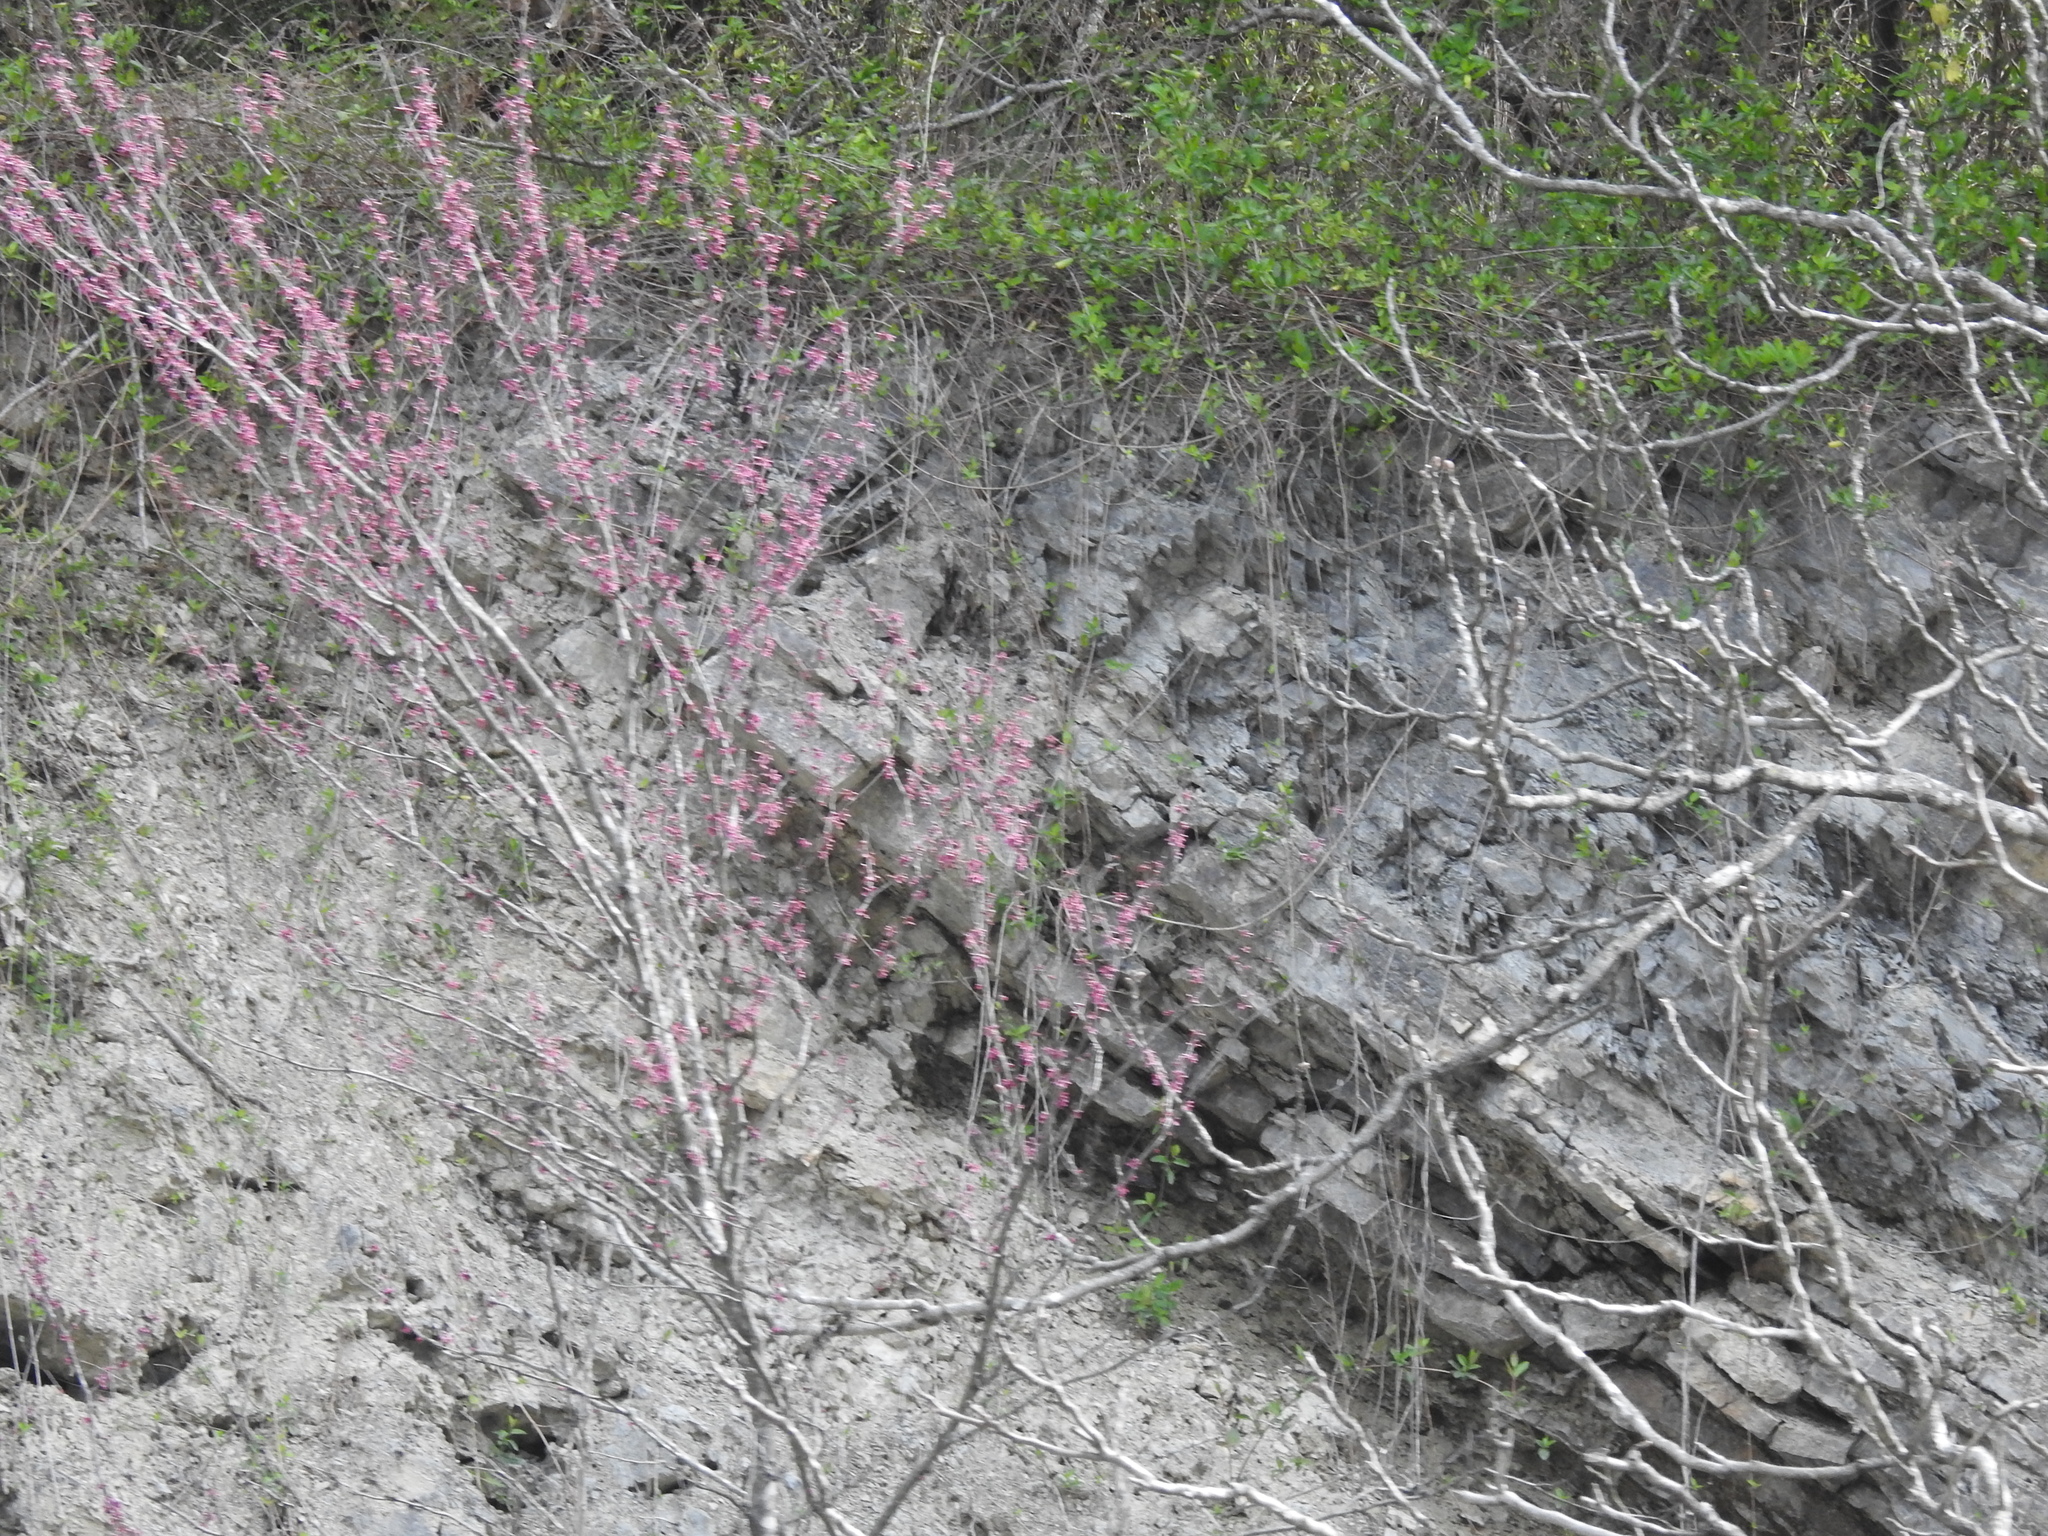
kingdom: Plantae
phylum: Tracheophyta
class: Magnoliopsida
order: Fabales
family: Fabaceae
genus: Cercis
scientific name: Cercis canadensis
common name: Eastern redbud
